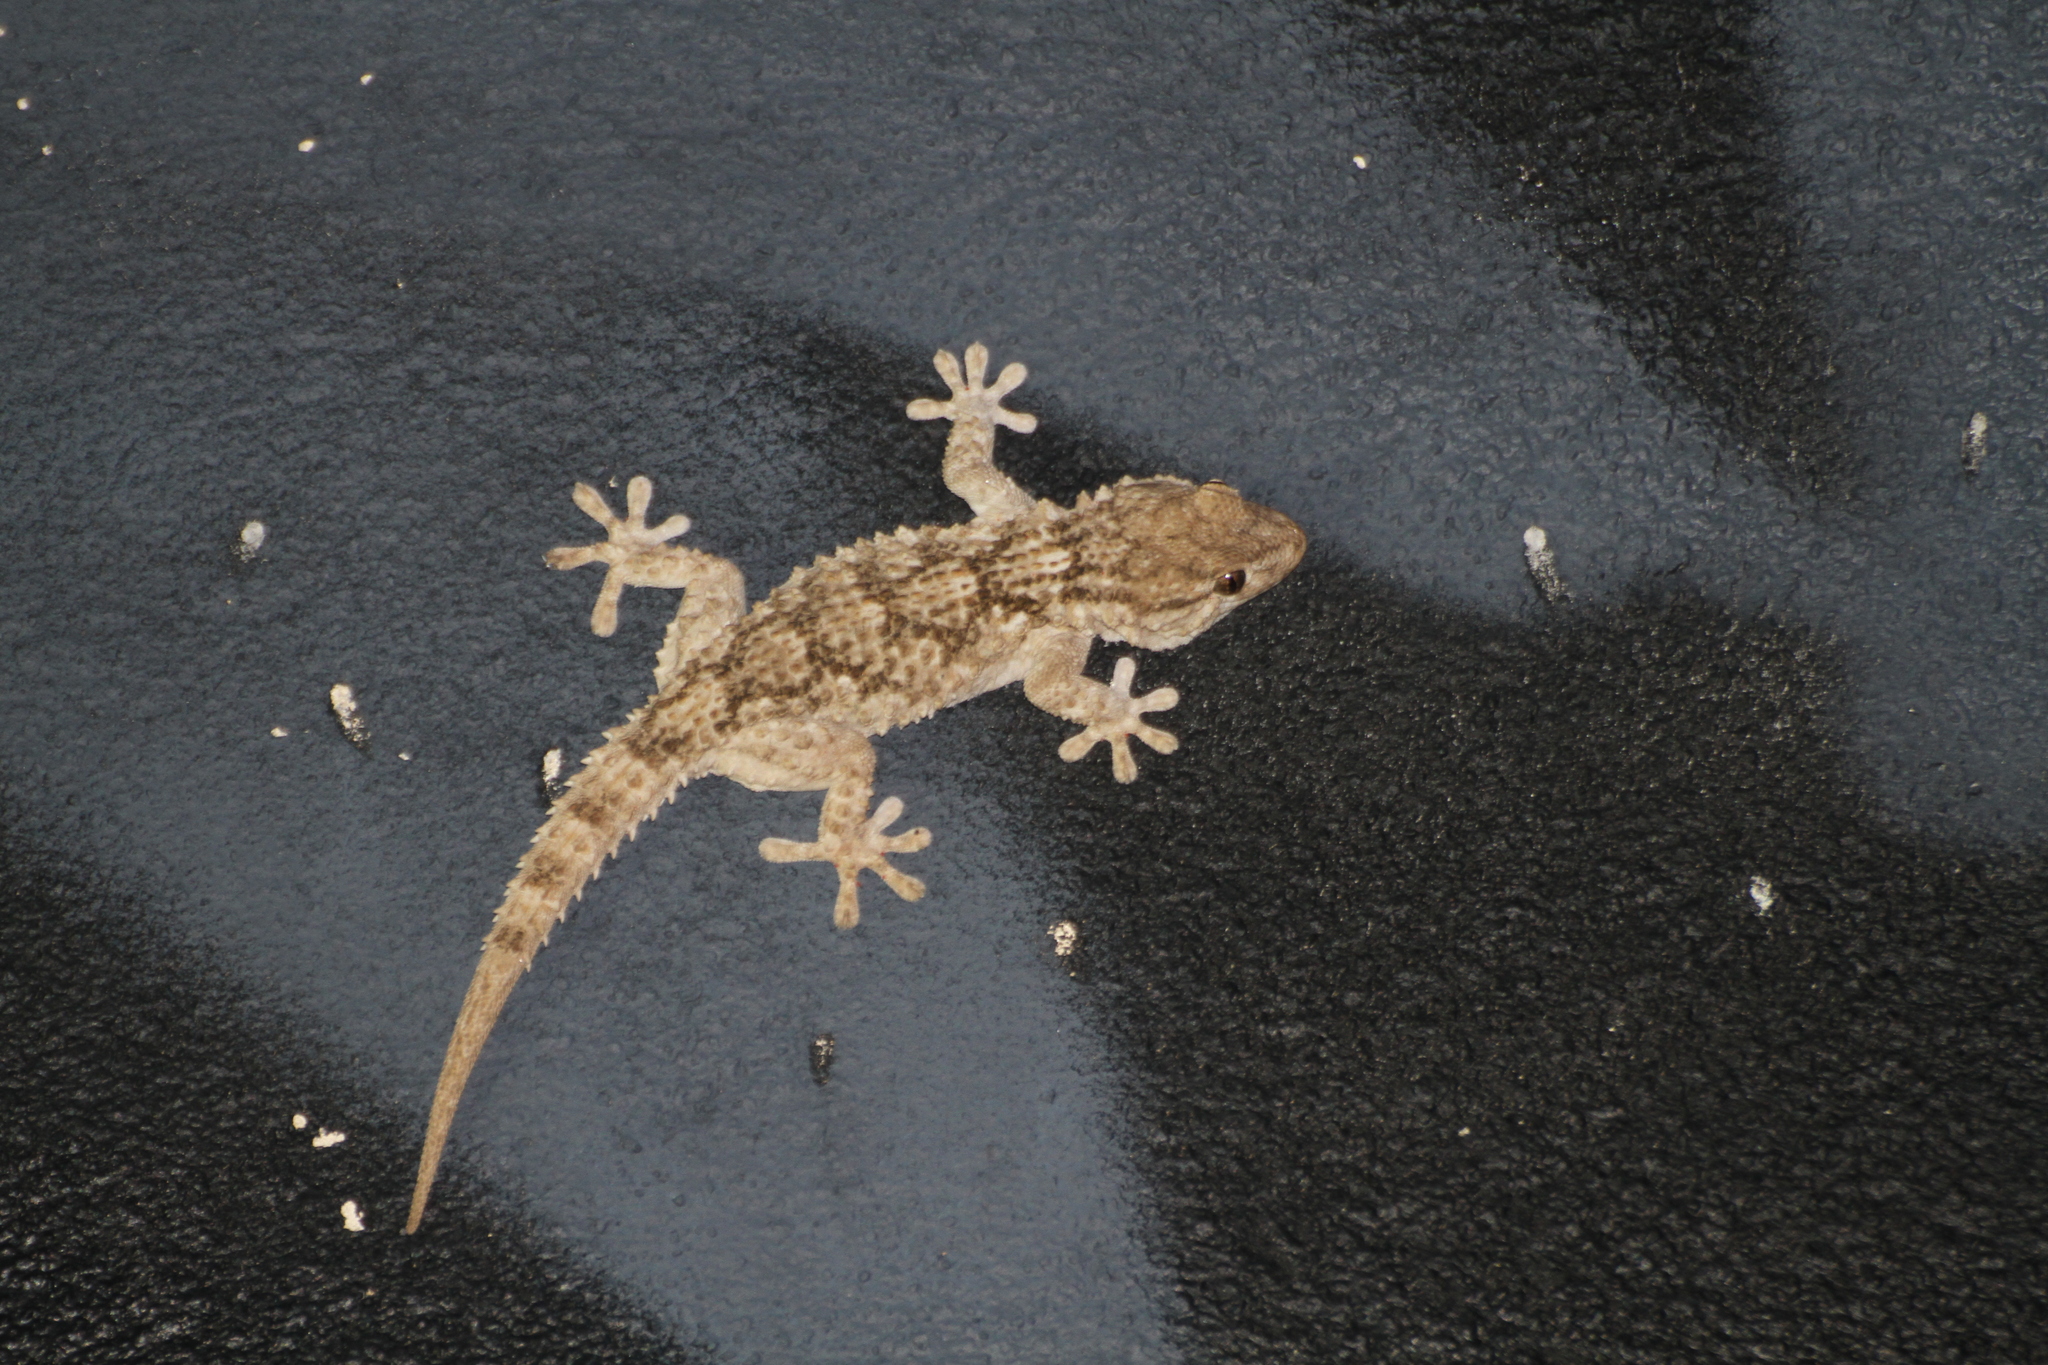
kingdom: Animalia
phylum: Chordata
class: Squamata
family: Phyllodactylidae
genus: Tarentola
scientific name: Tarentola mauritanica
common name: Moorish gecko
